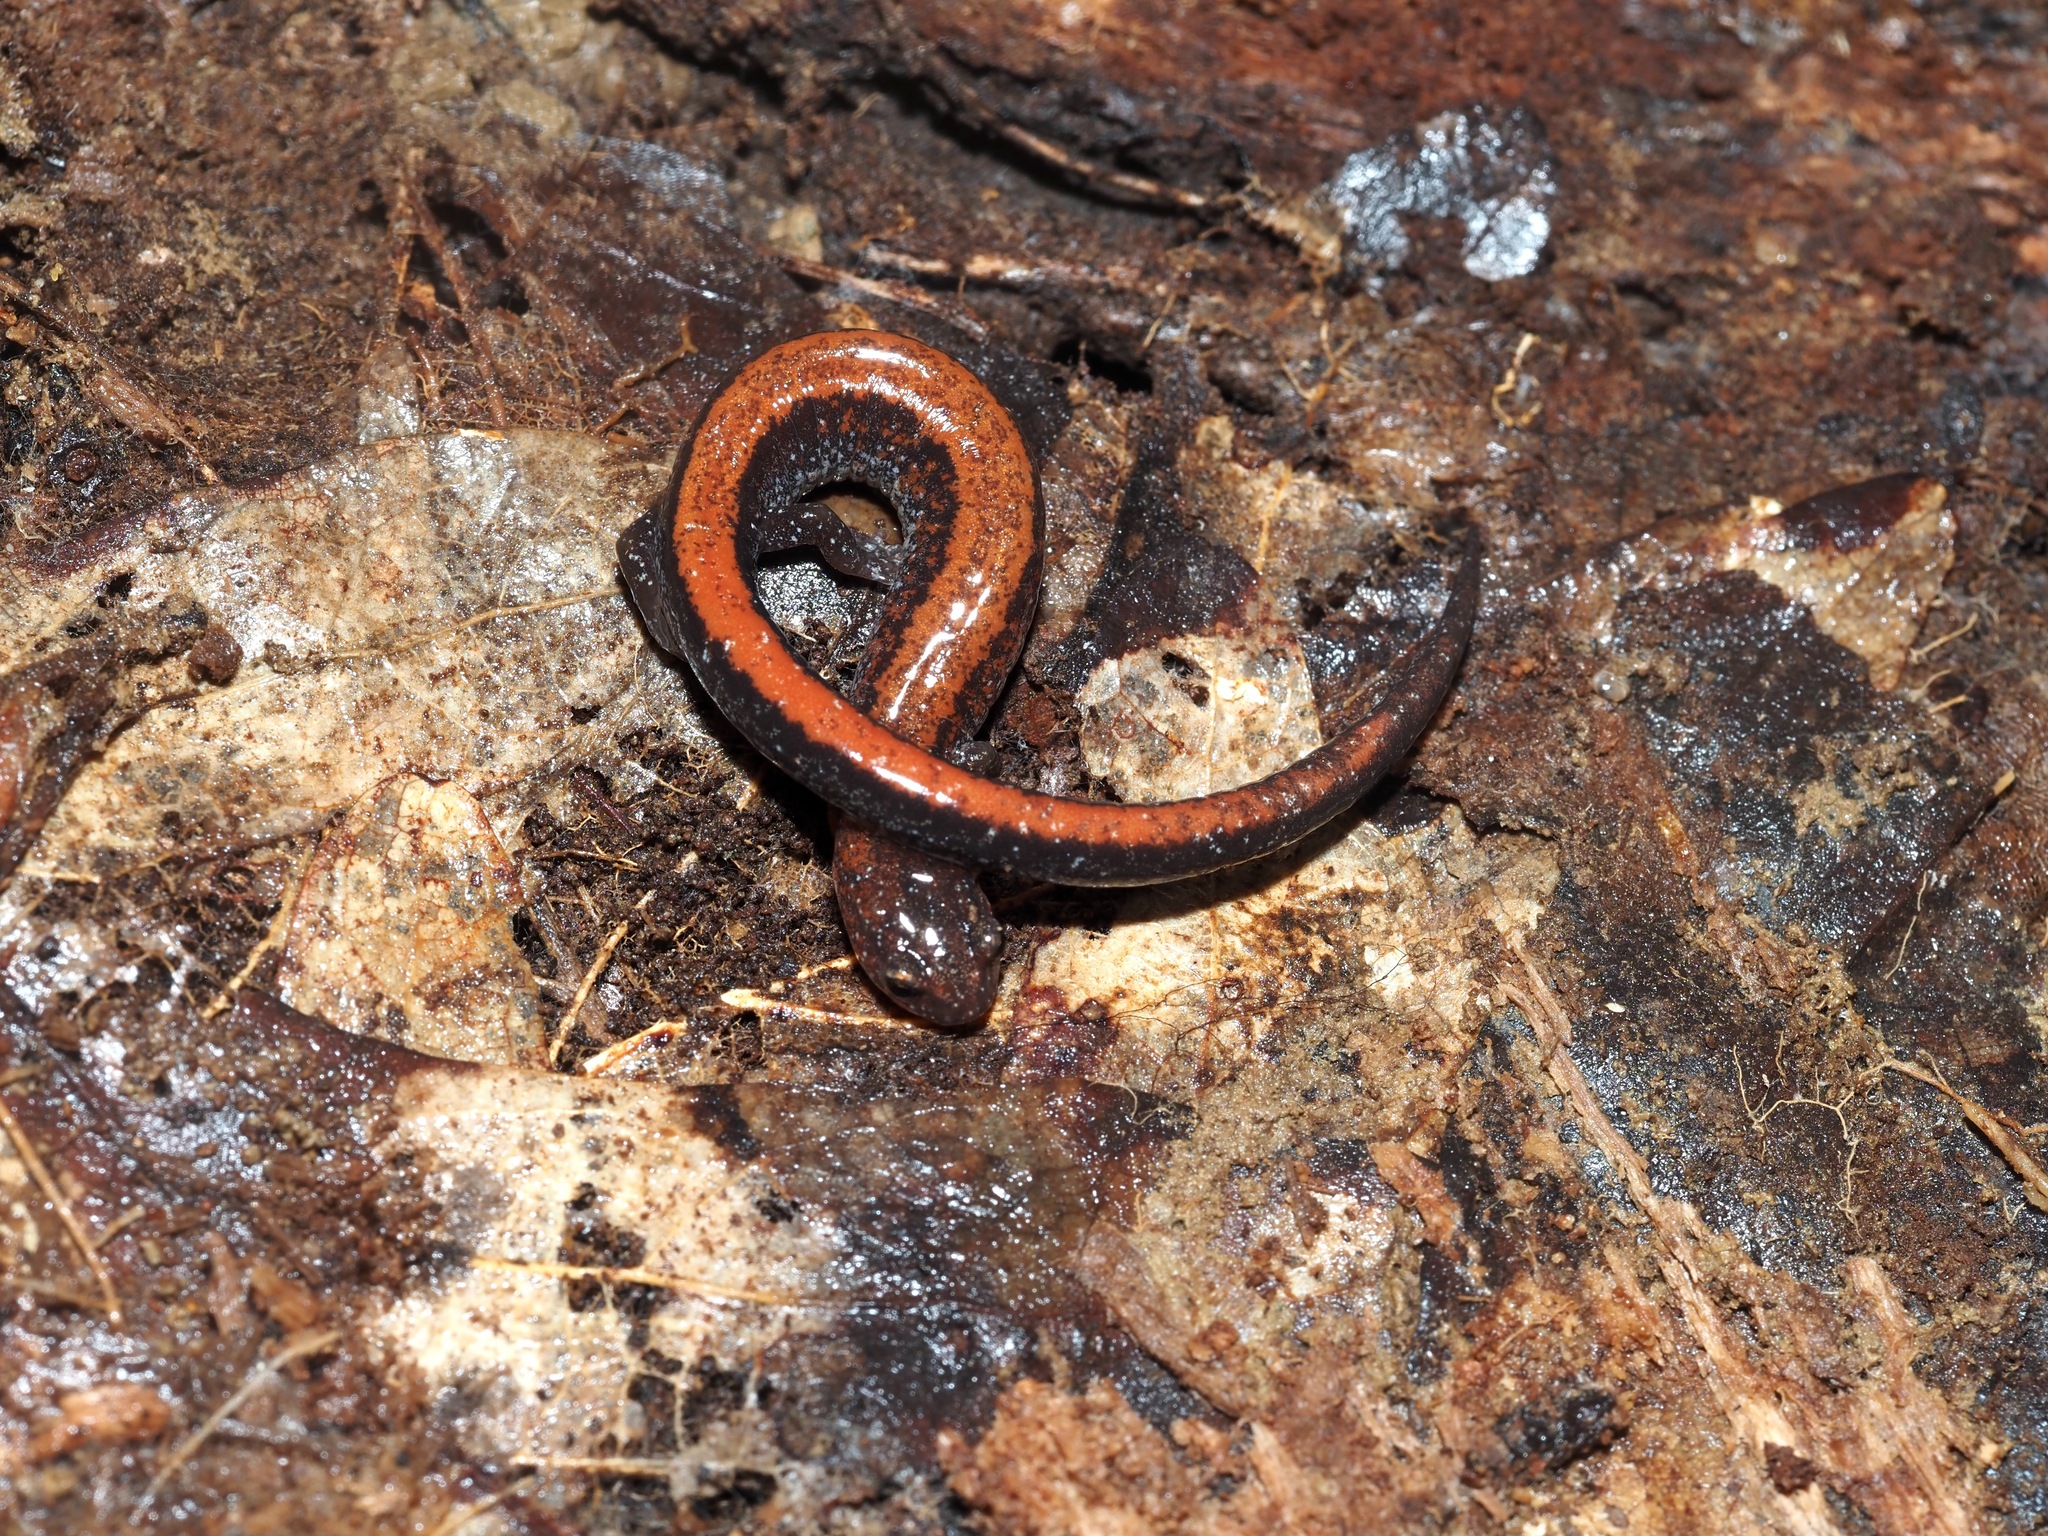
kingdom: Animalia
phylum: Chordata
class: Amphibia
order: Caudata
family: Plethodontidae
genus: Plethodon
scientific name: Plethodon cinereus
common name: Redback salamander
